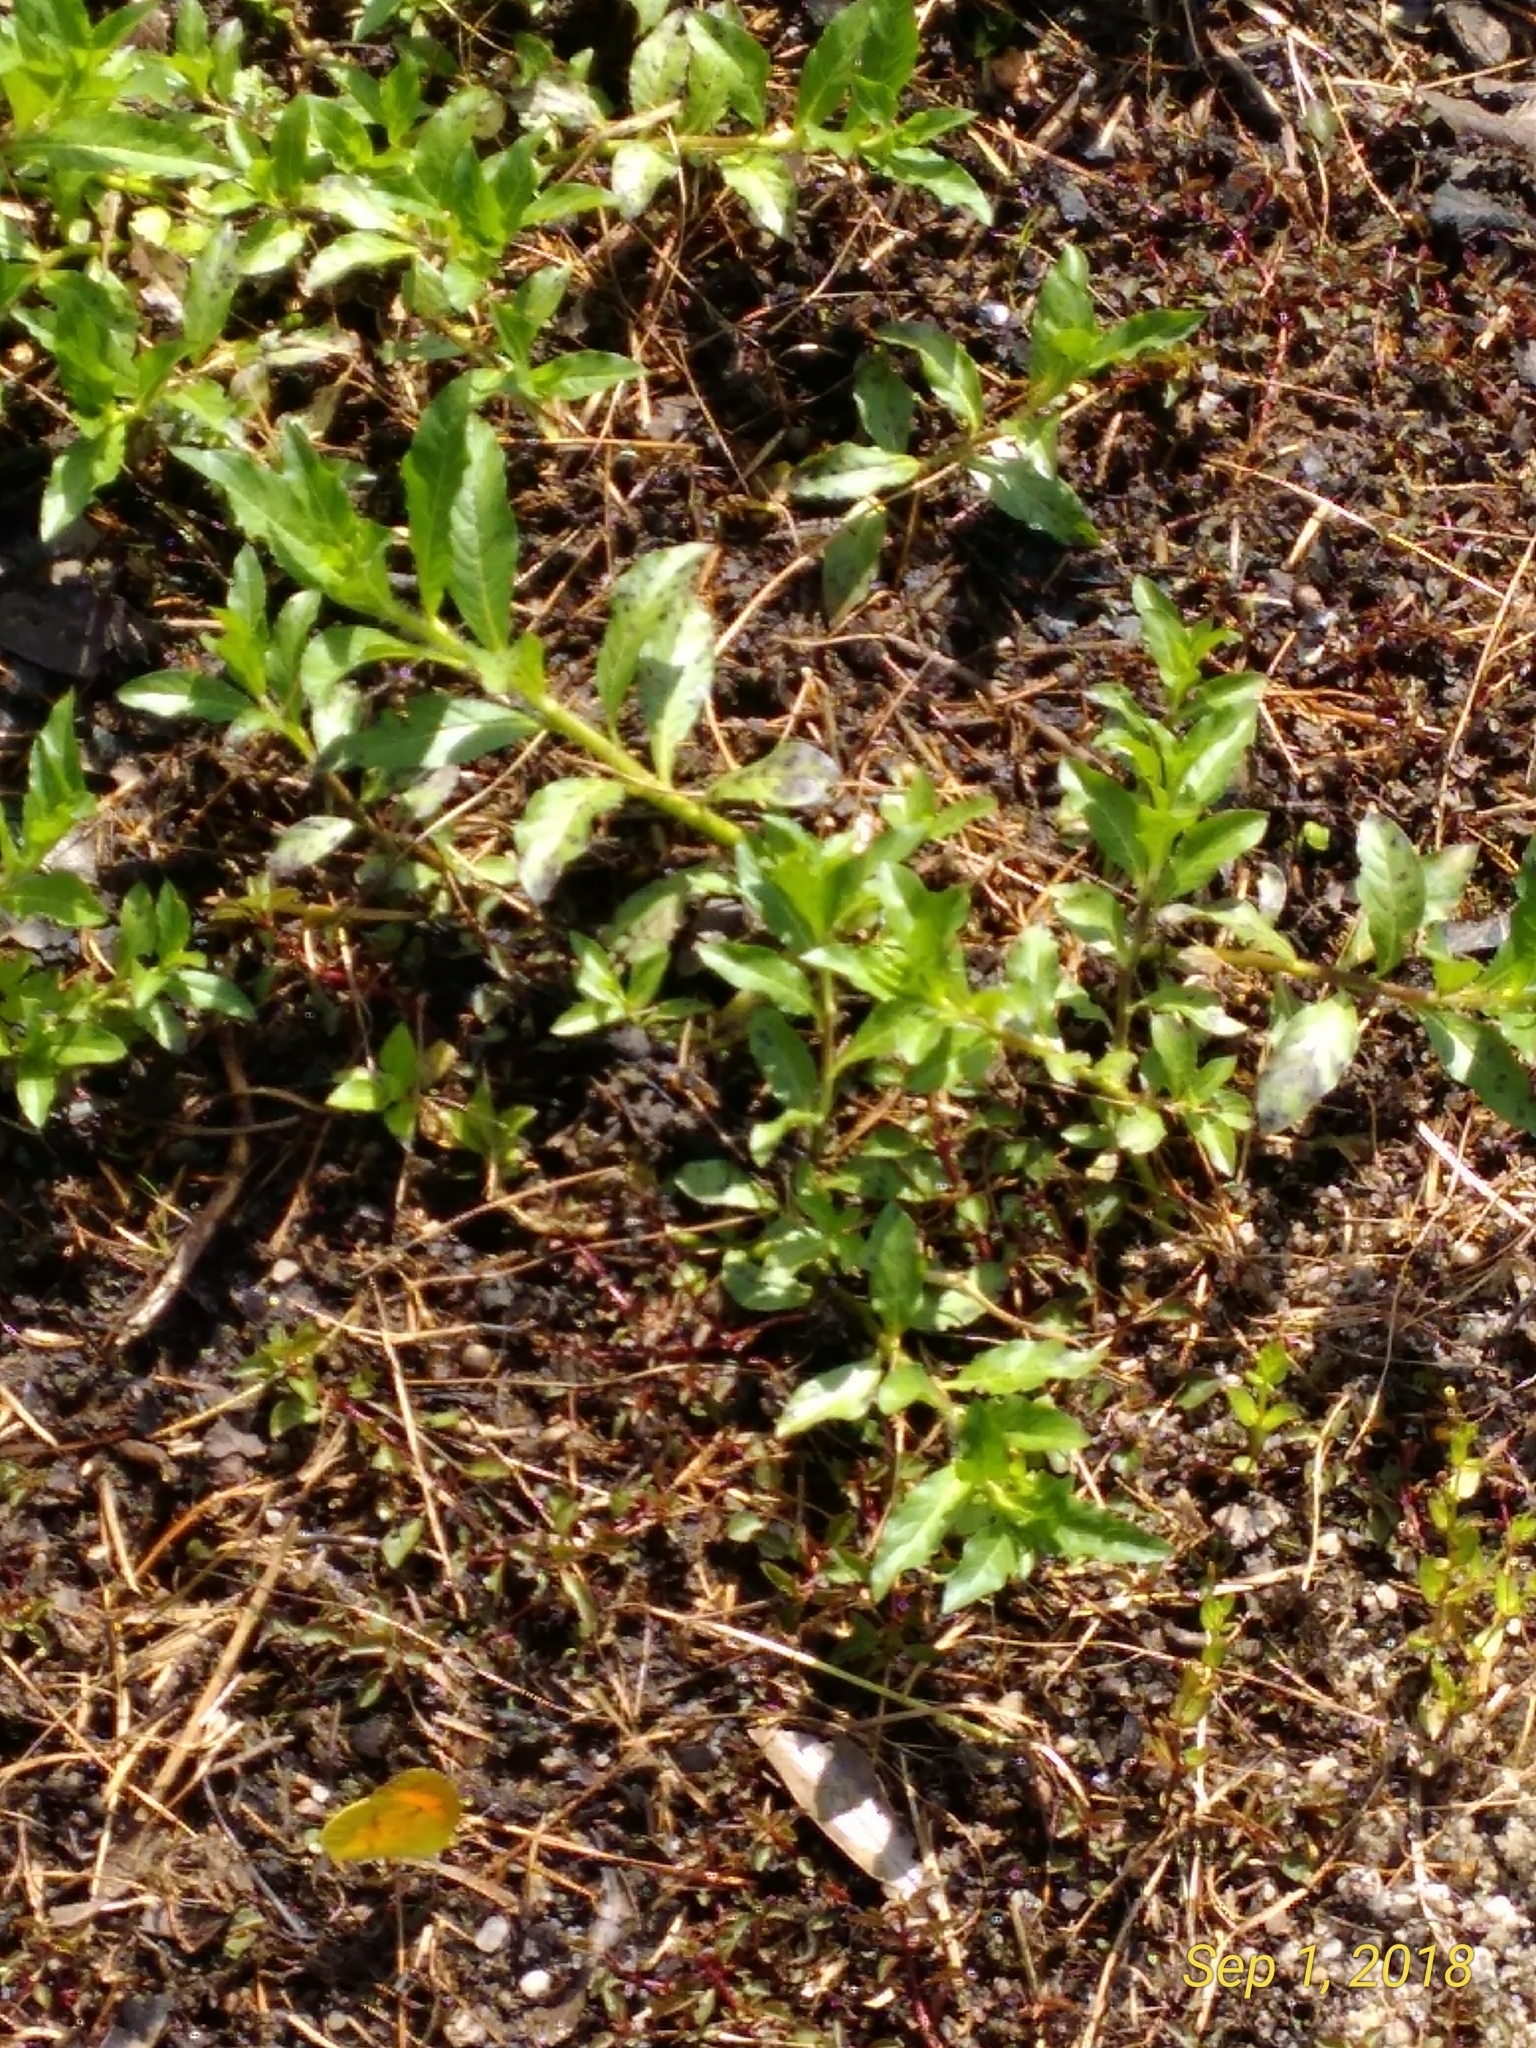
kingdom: Animalia
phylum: Arthropoda
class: Insecta
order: Lepidoptera
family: Pieridae
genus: Abaeis
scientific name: Abaeis nicippe
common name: Sleepy orange
